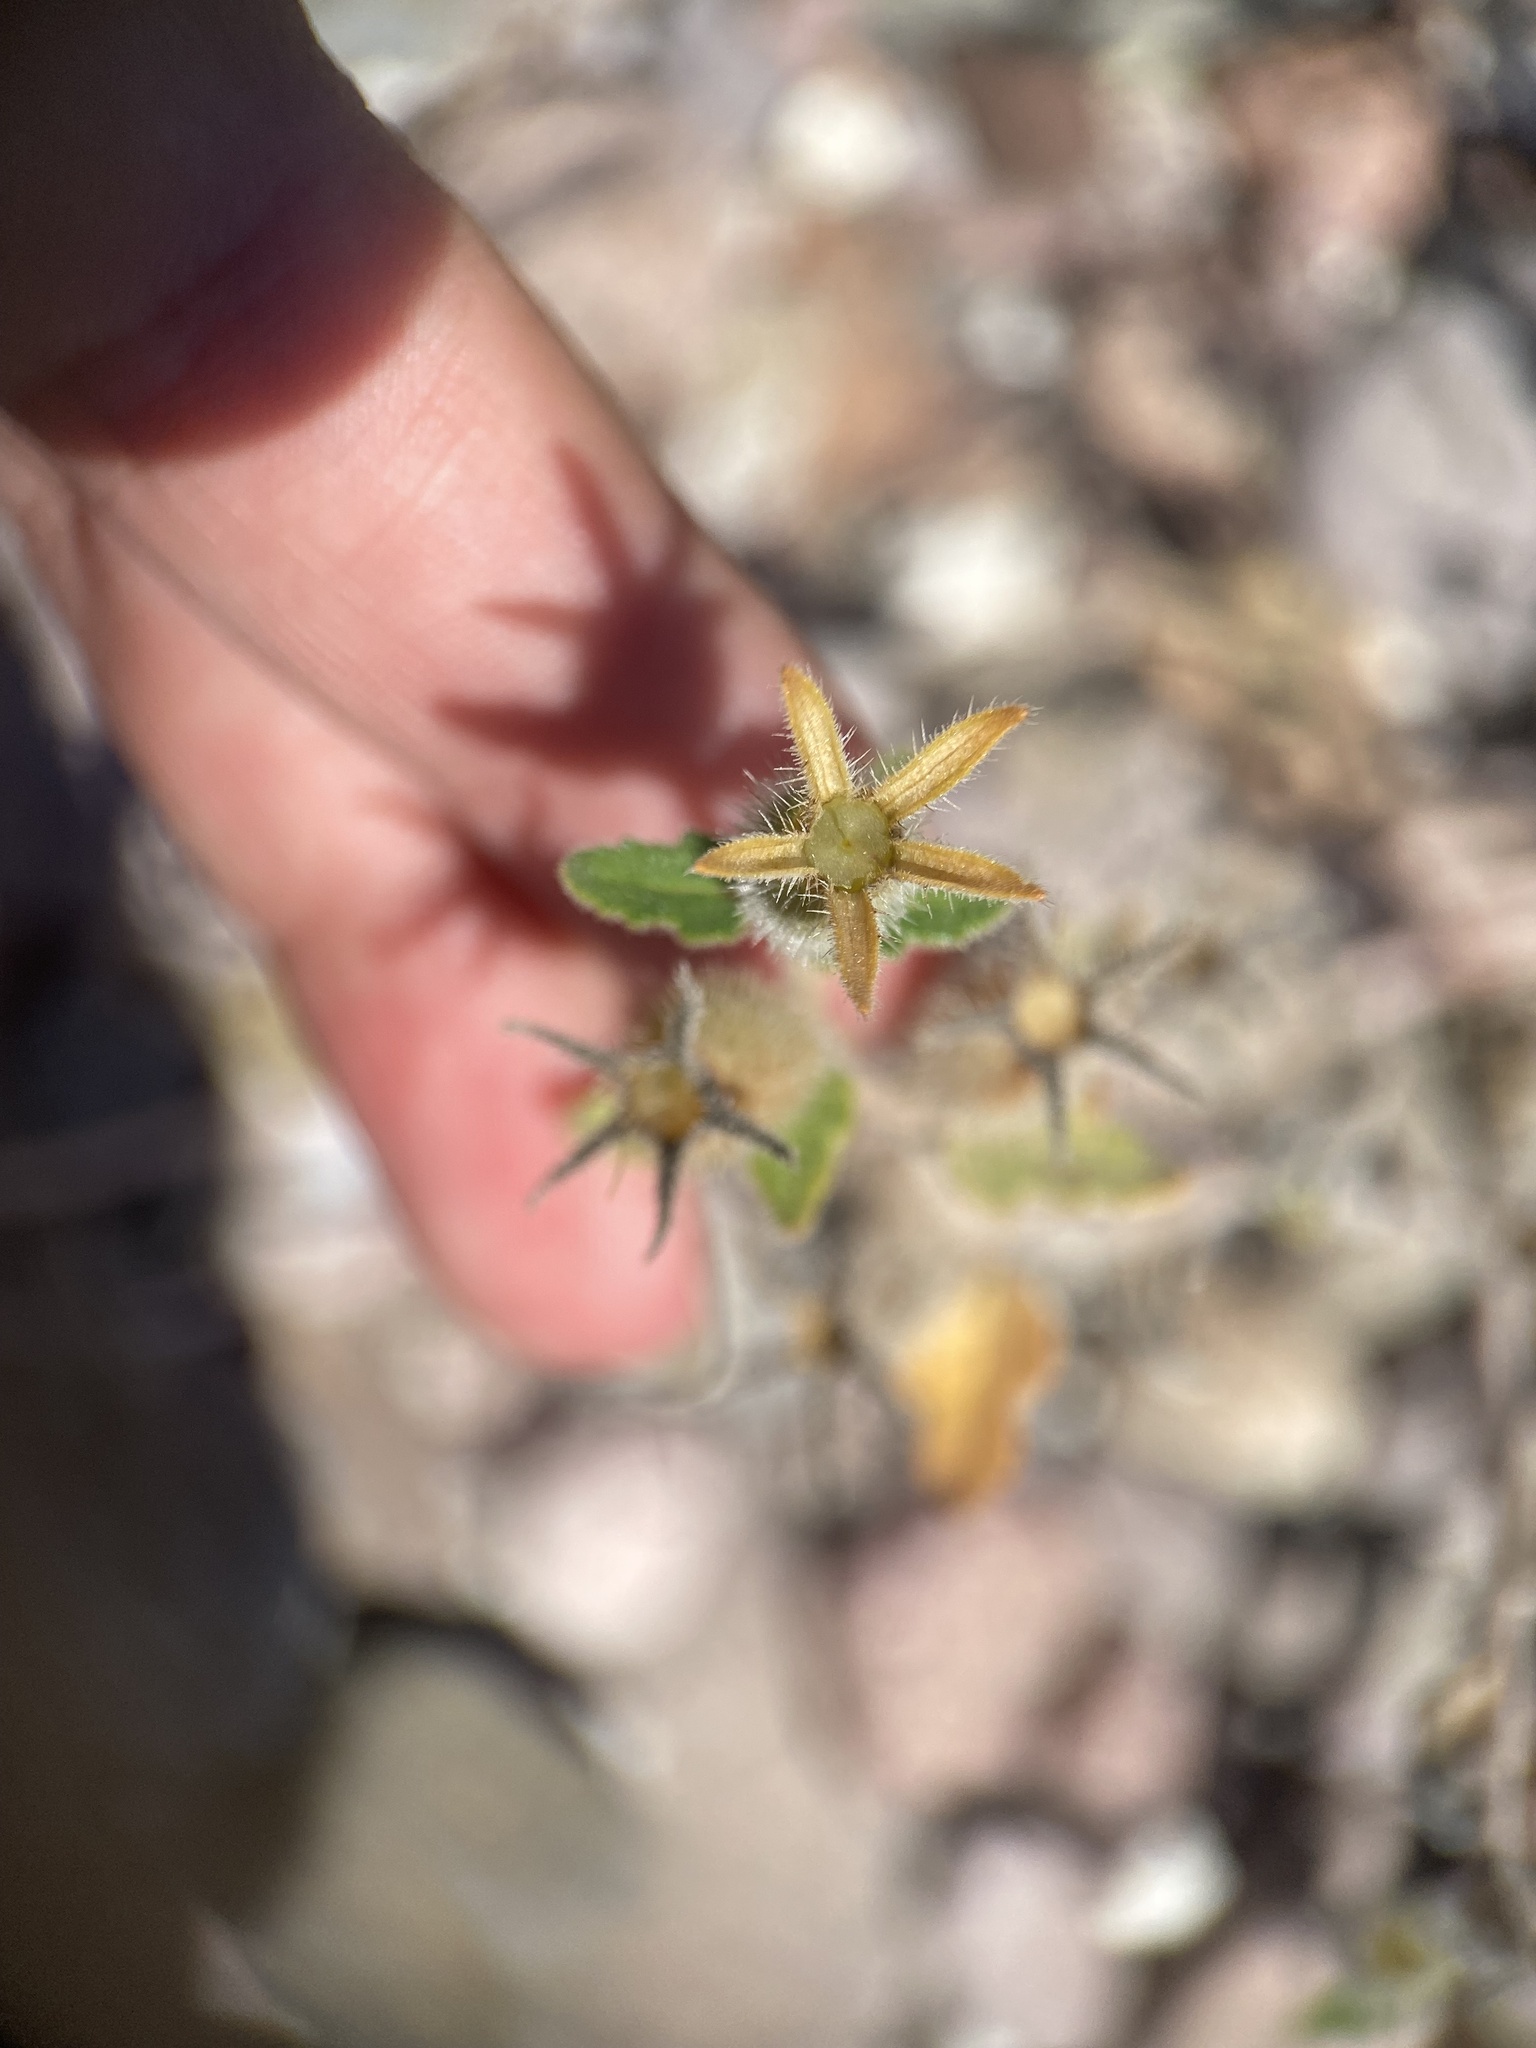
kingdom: Plantae
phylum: Tracheophyta
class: Magnoliopsida
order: Cornales
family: Loasaceae
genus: Mentzelia
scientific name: Mentzelia adhaerens
